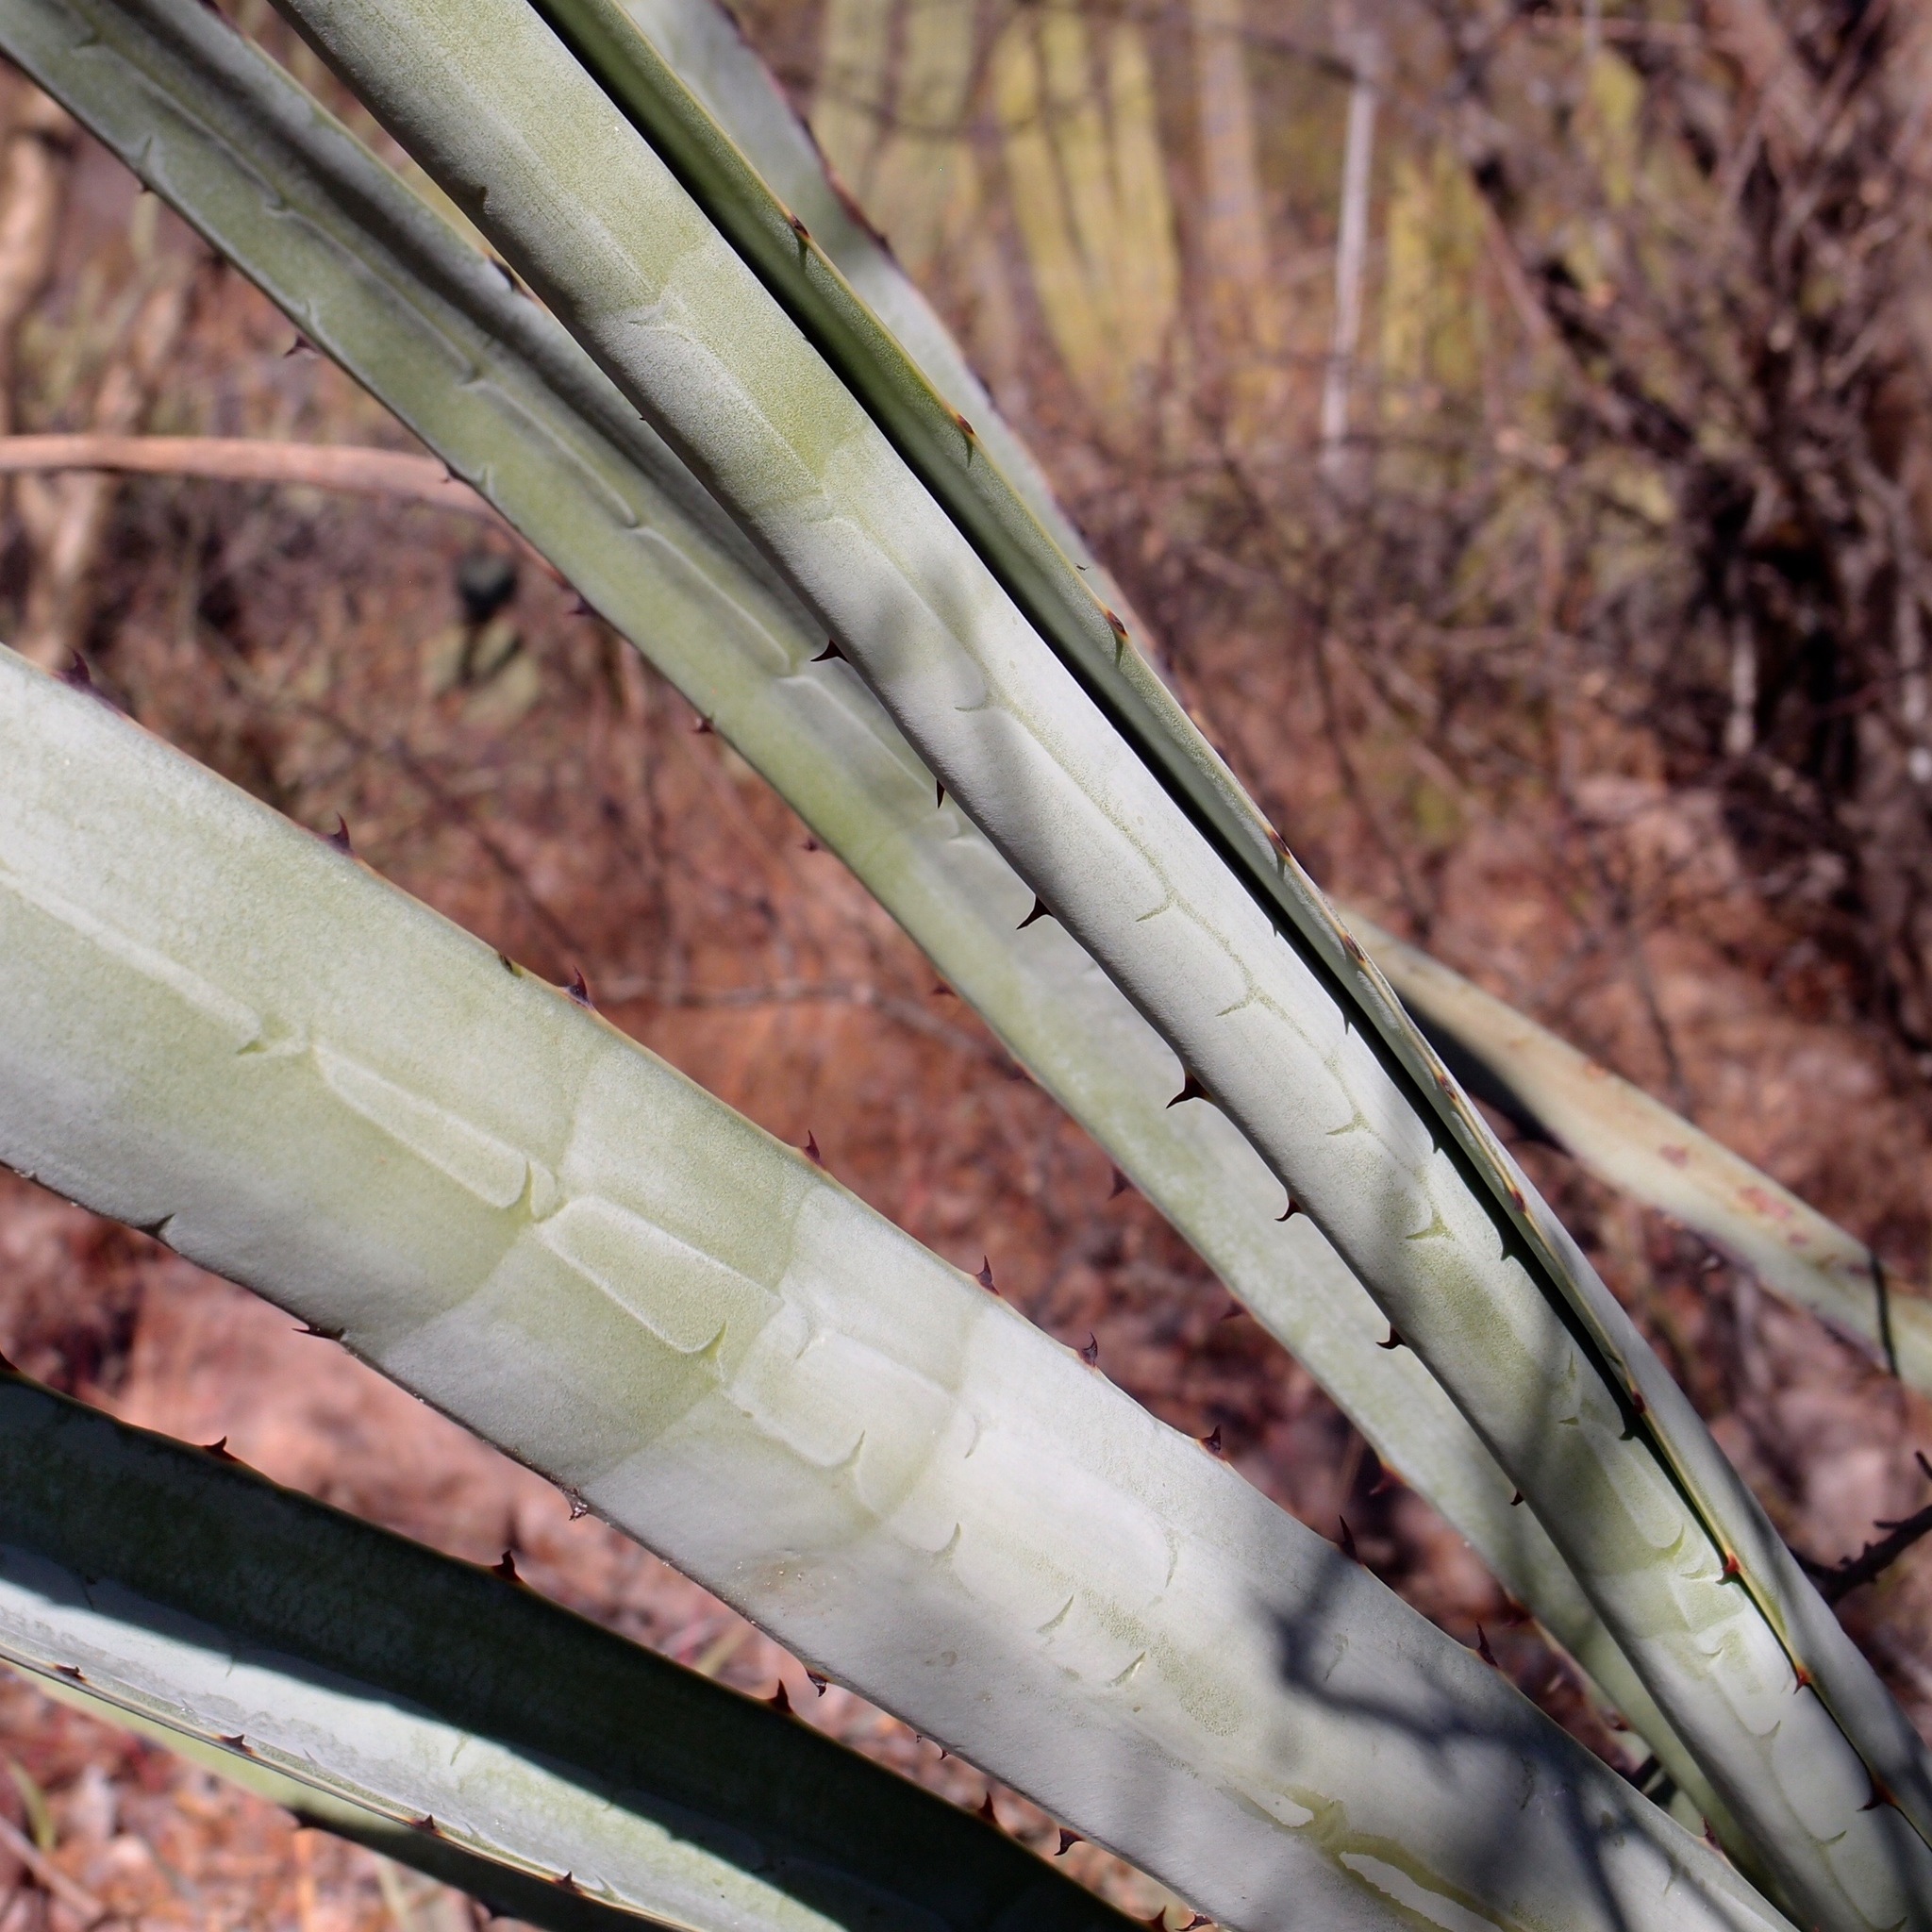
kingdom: Plantae
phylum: Tracheophyta
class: Liliopsida
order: Asparagales
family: Asparagaceae
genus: Agave
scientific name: Agave angustifolia
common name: Mescal agave
